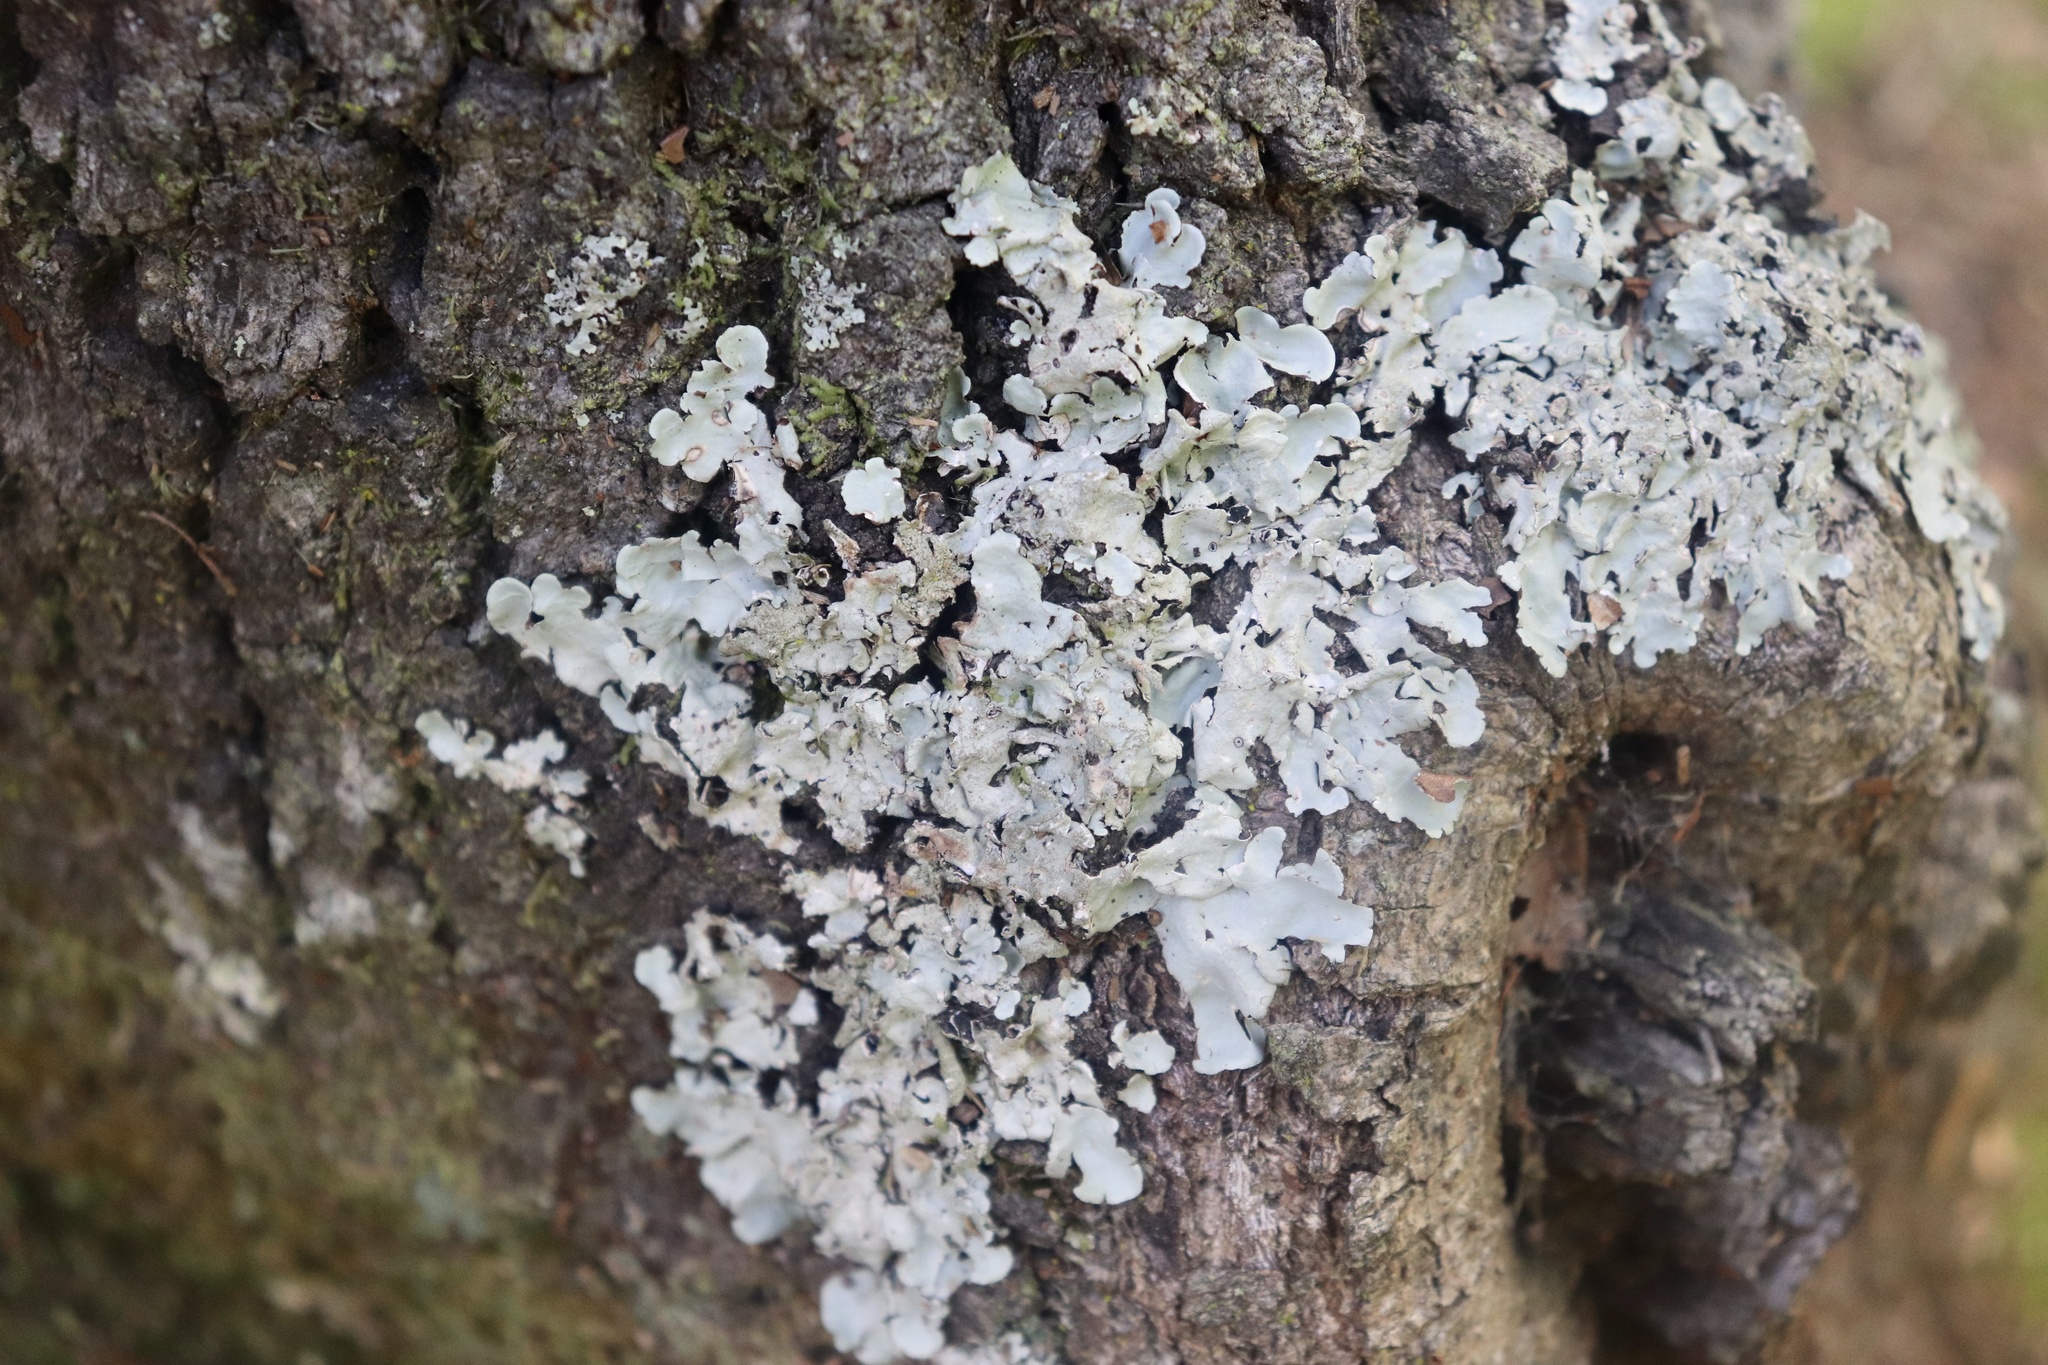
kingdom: Fungi
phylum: Ascomycota
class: Lecanoromycetes
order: Lecanorales
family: Parmeliaceae
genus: Parmotrema
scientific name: Parmotrema tinctorum
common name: Old gray ruffles
